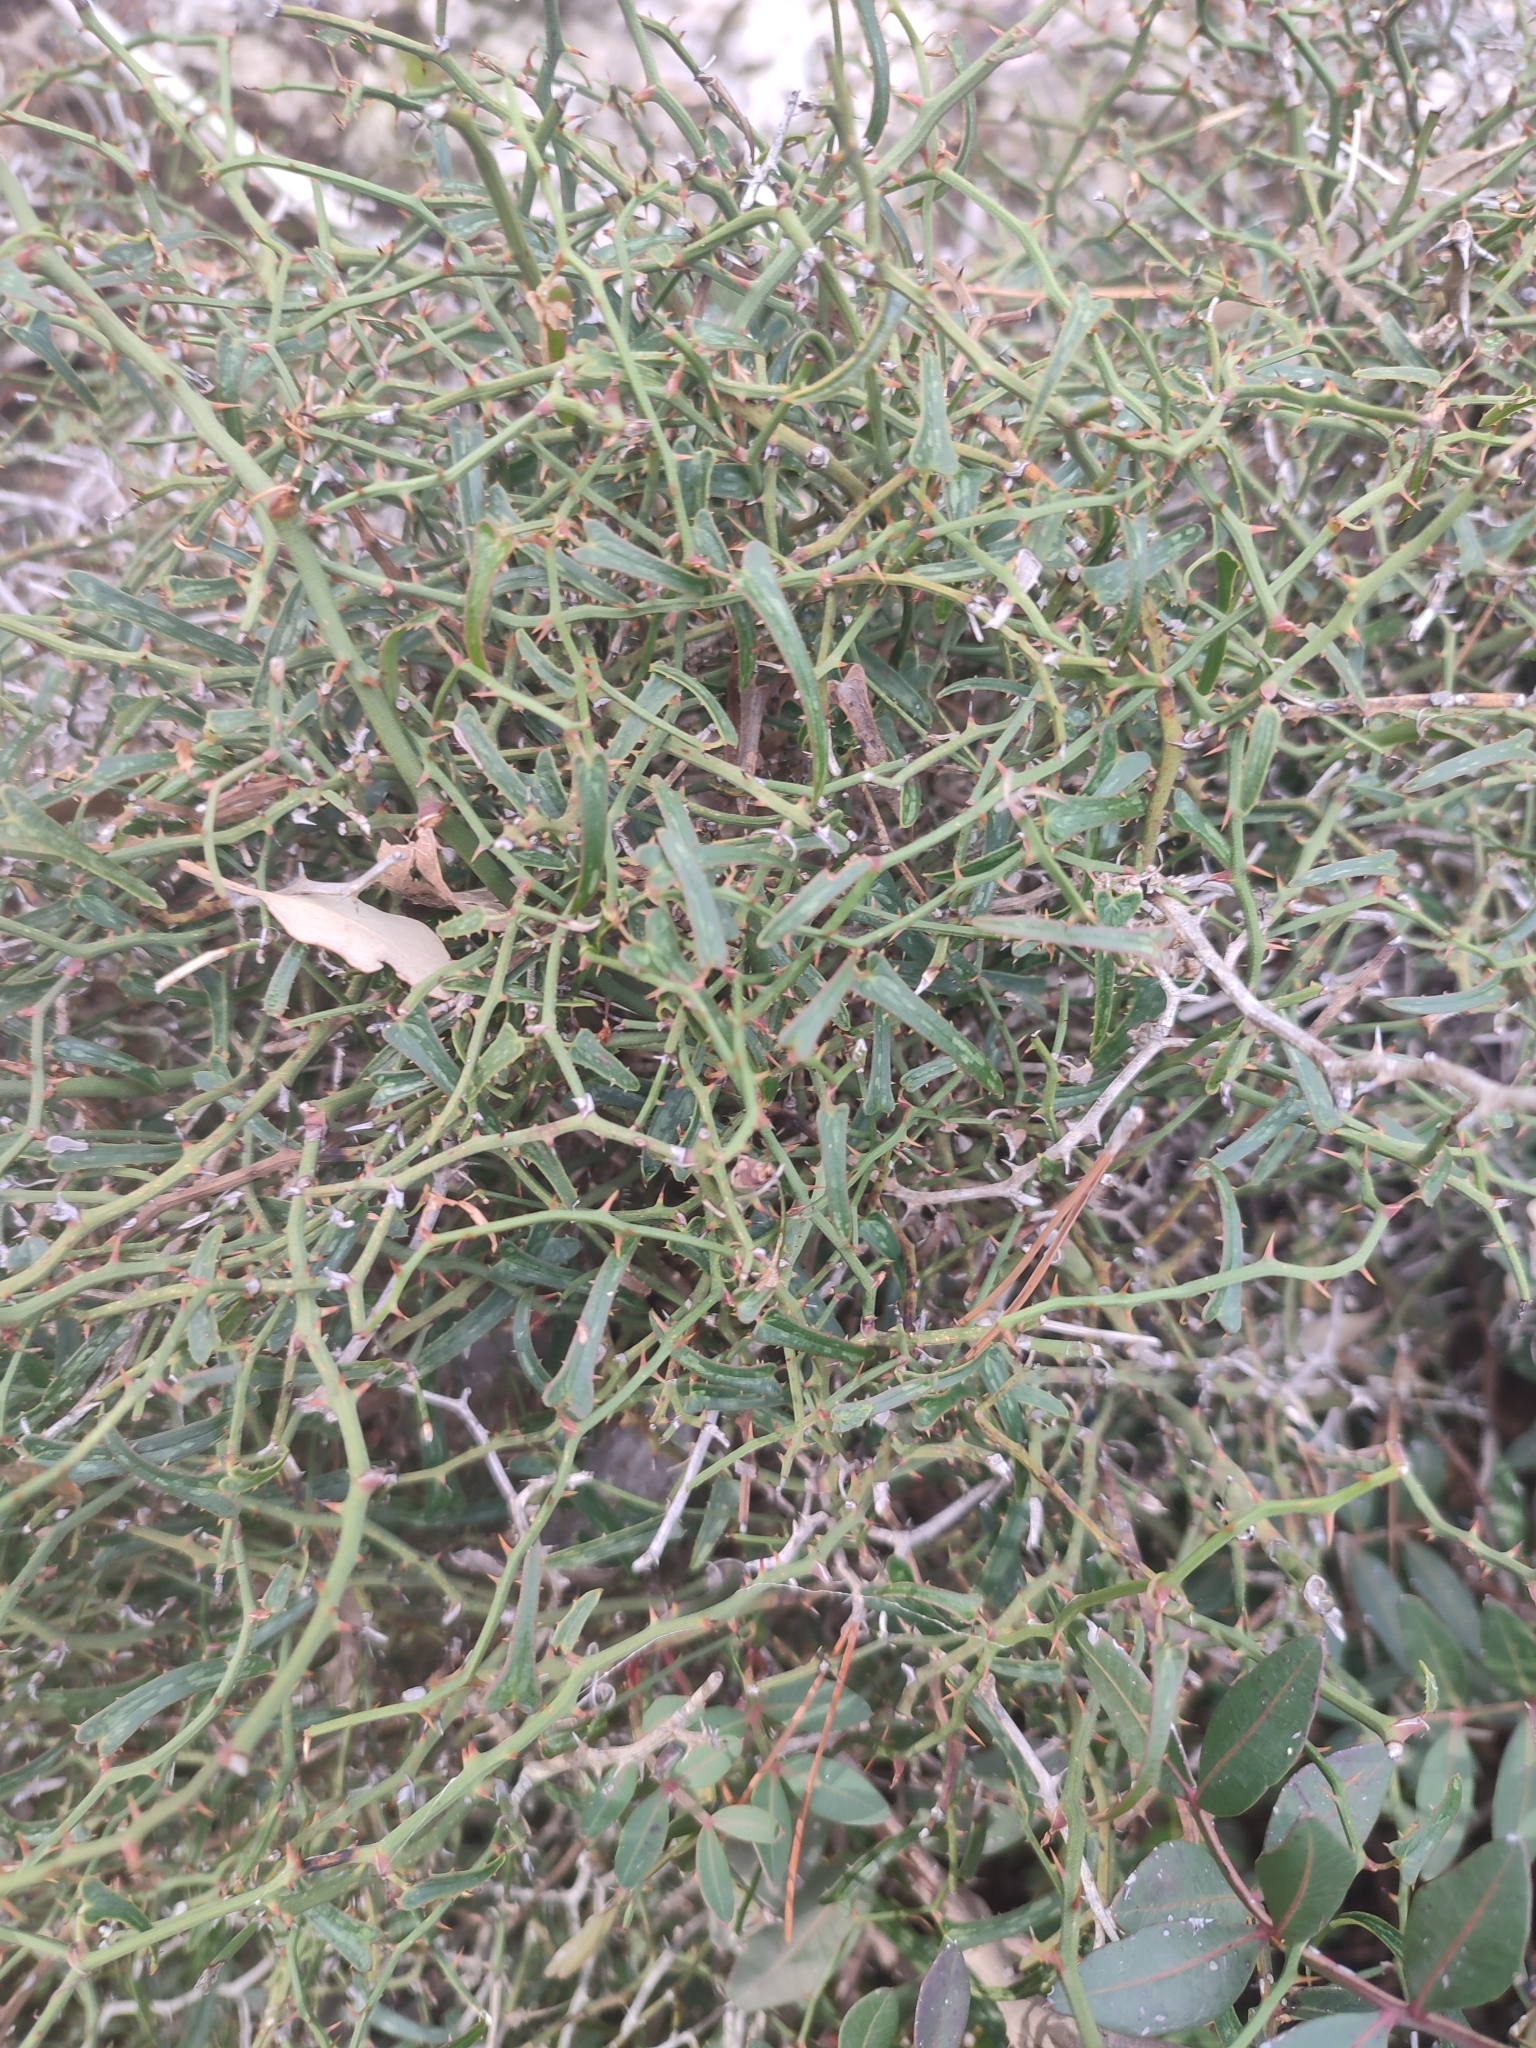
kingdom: Plantae
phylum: Tracheophyta
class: Liliopsida
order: Liliales
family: Smilacaceae
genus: Smilax
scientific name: Smilax aspera
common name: Common smilax
